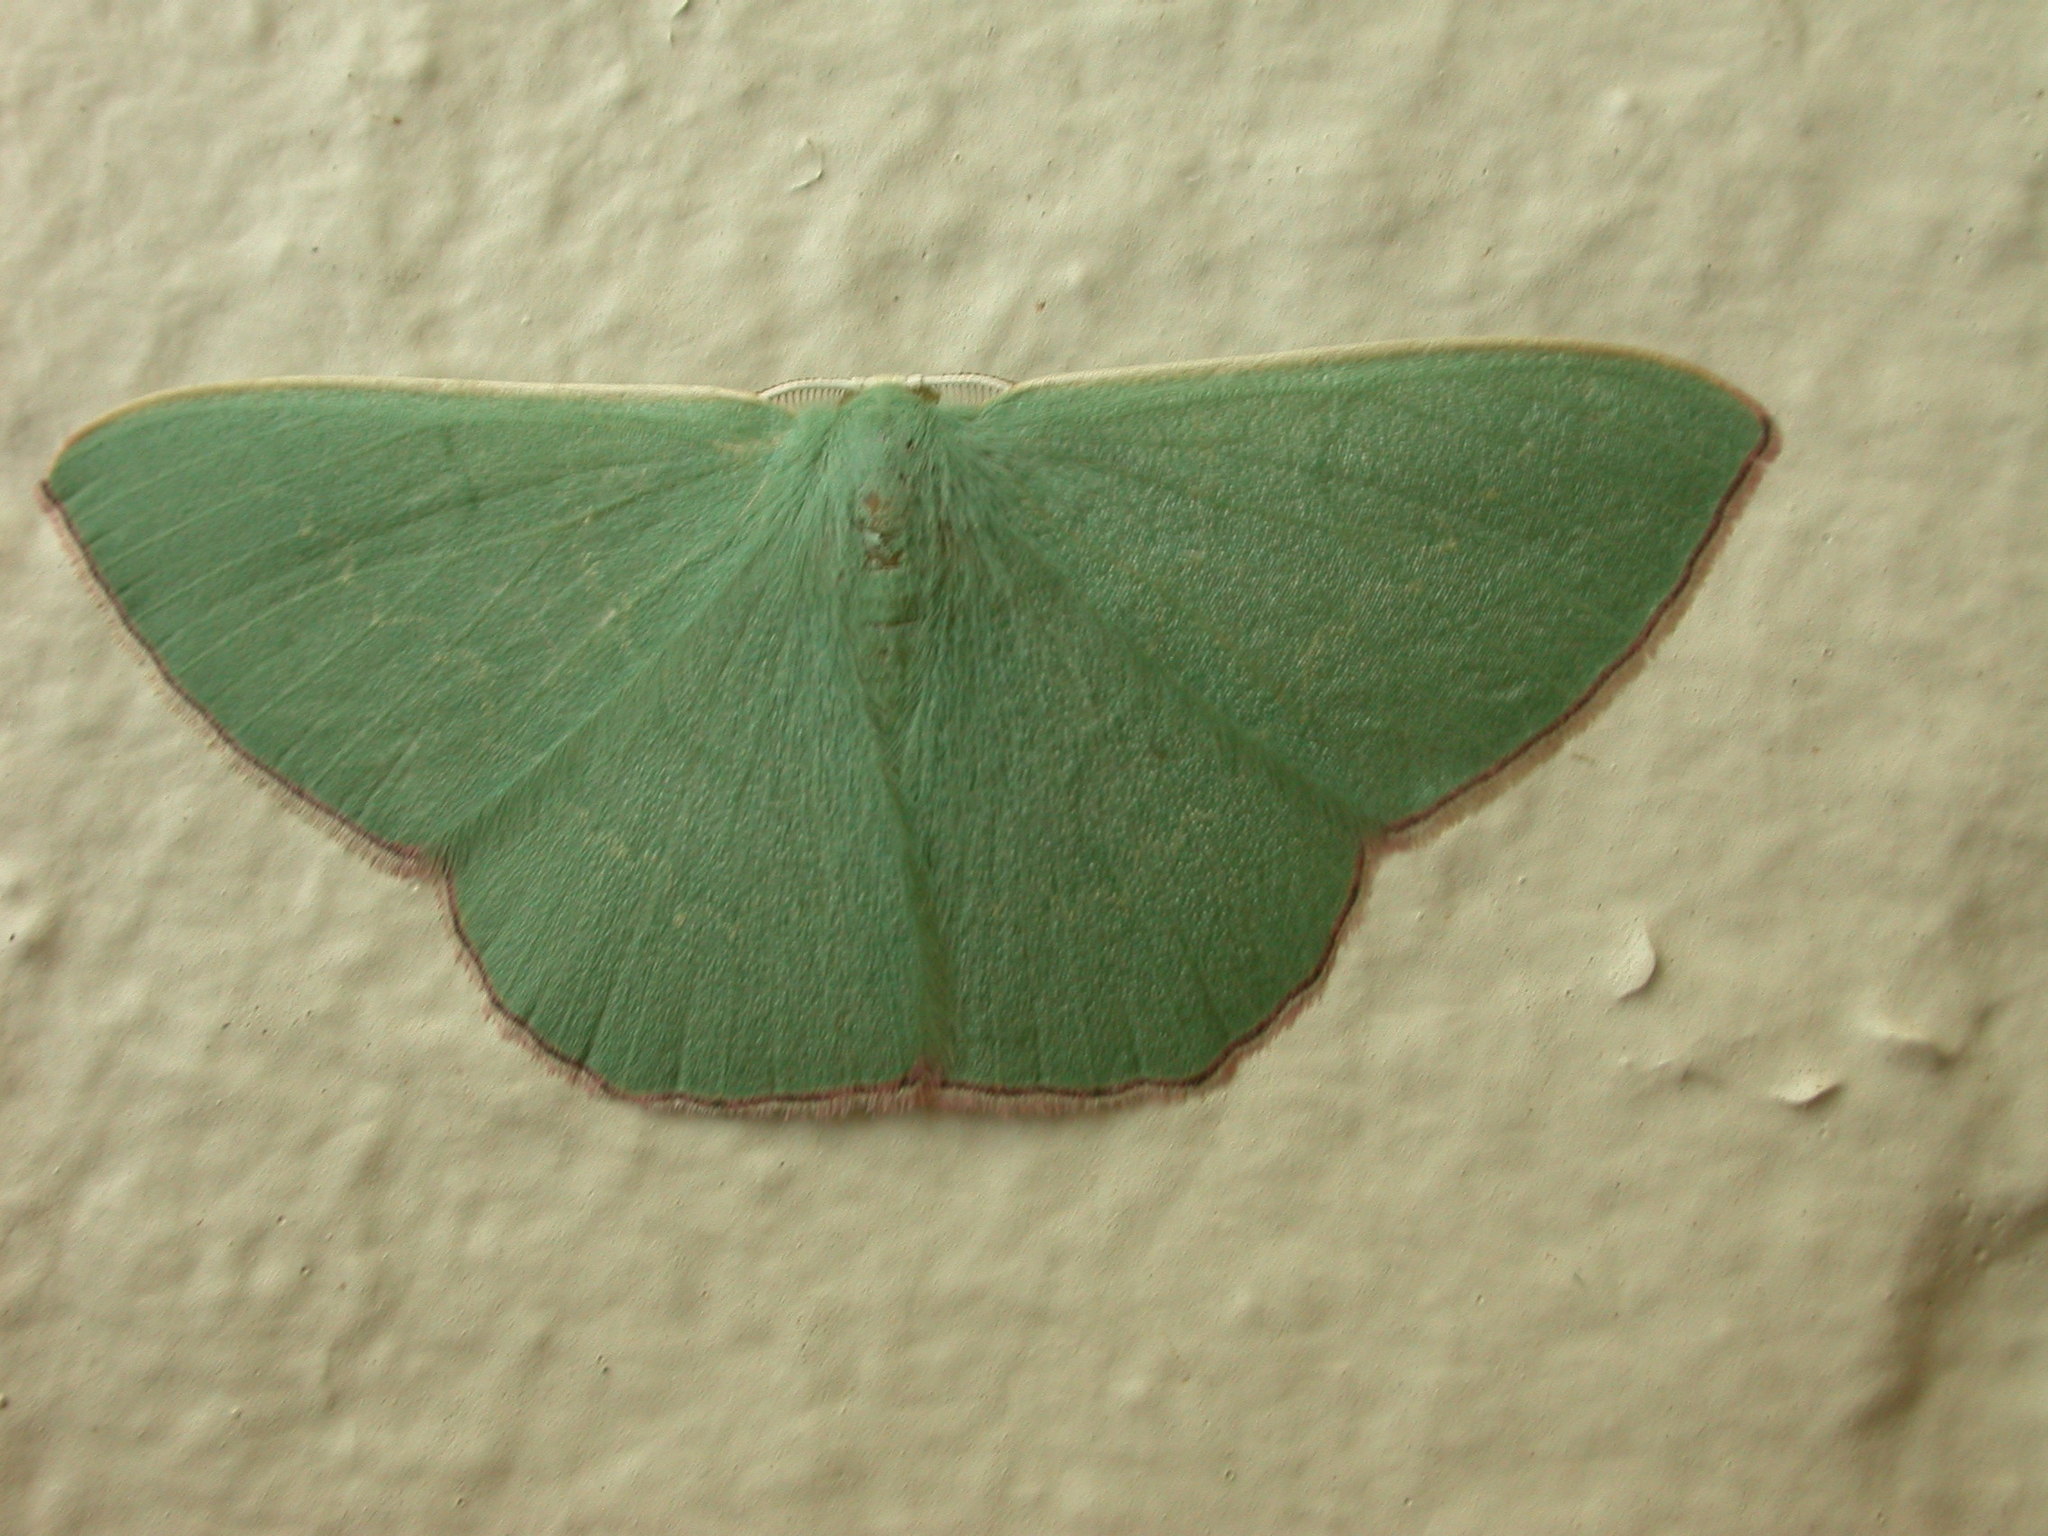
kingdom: Animalia
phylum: Arthropoda
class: Insecta
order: Lepidoptera
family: Geometridae
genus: Prasinocyma
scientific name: Prasinocyma semicrocea
